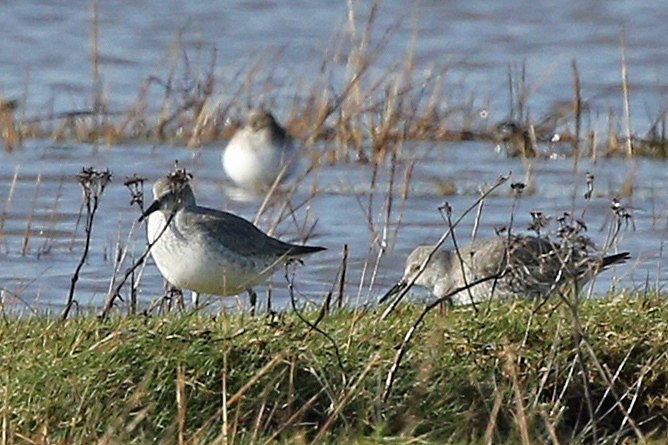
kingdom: Animalia
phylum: Chordata
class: Aves
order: Charadriiformes
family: Scolopacidae
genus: Calidris
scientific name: Calidris canutus
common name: Red knot
